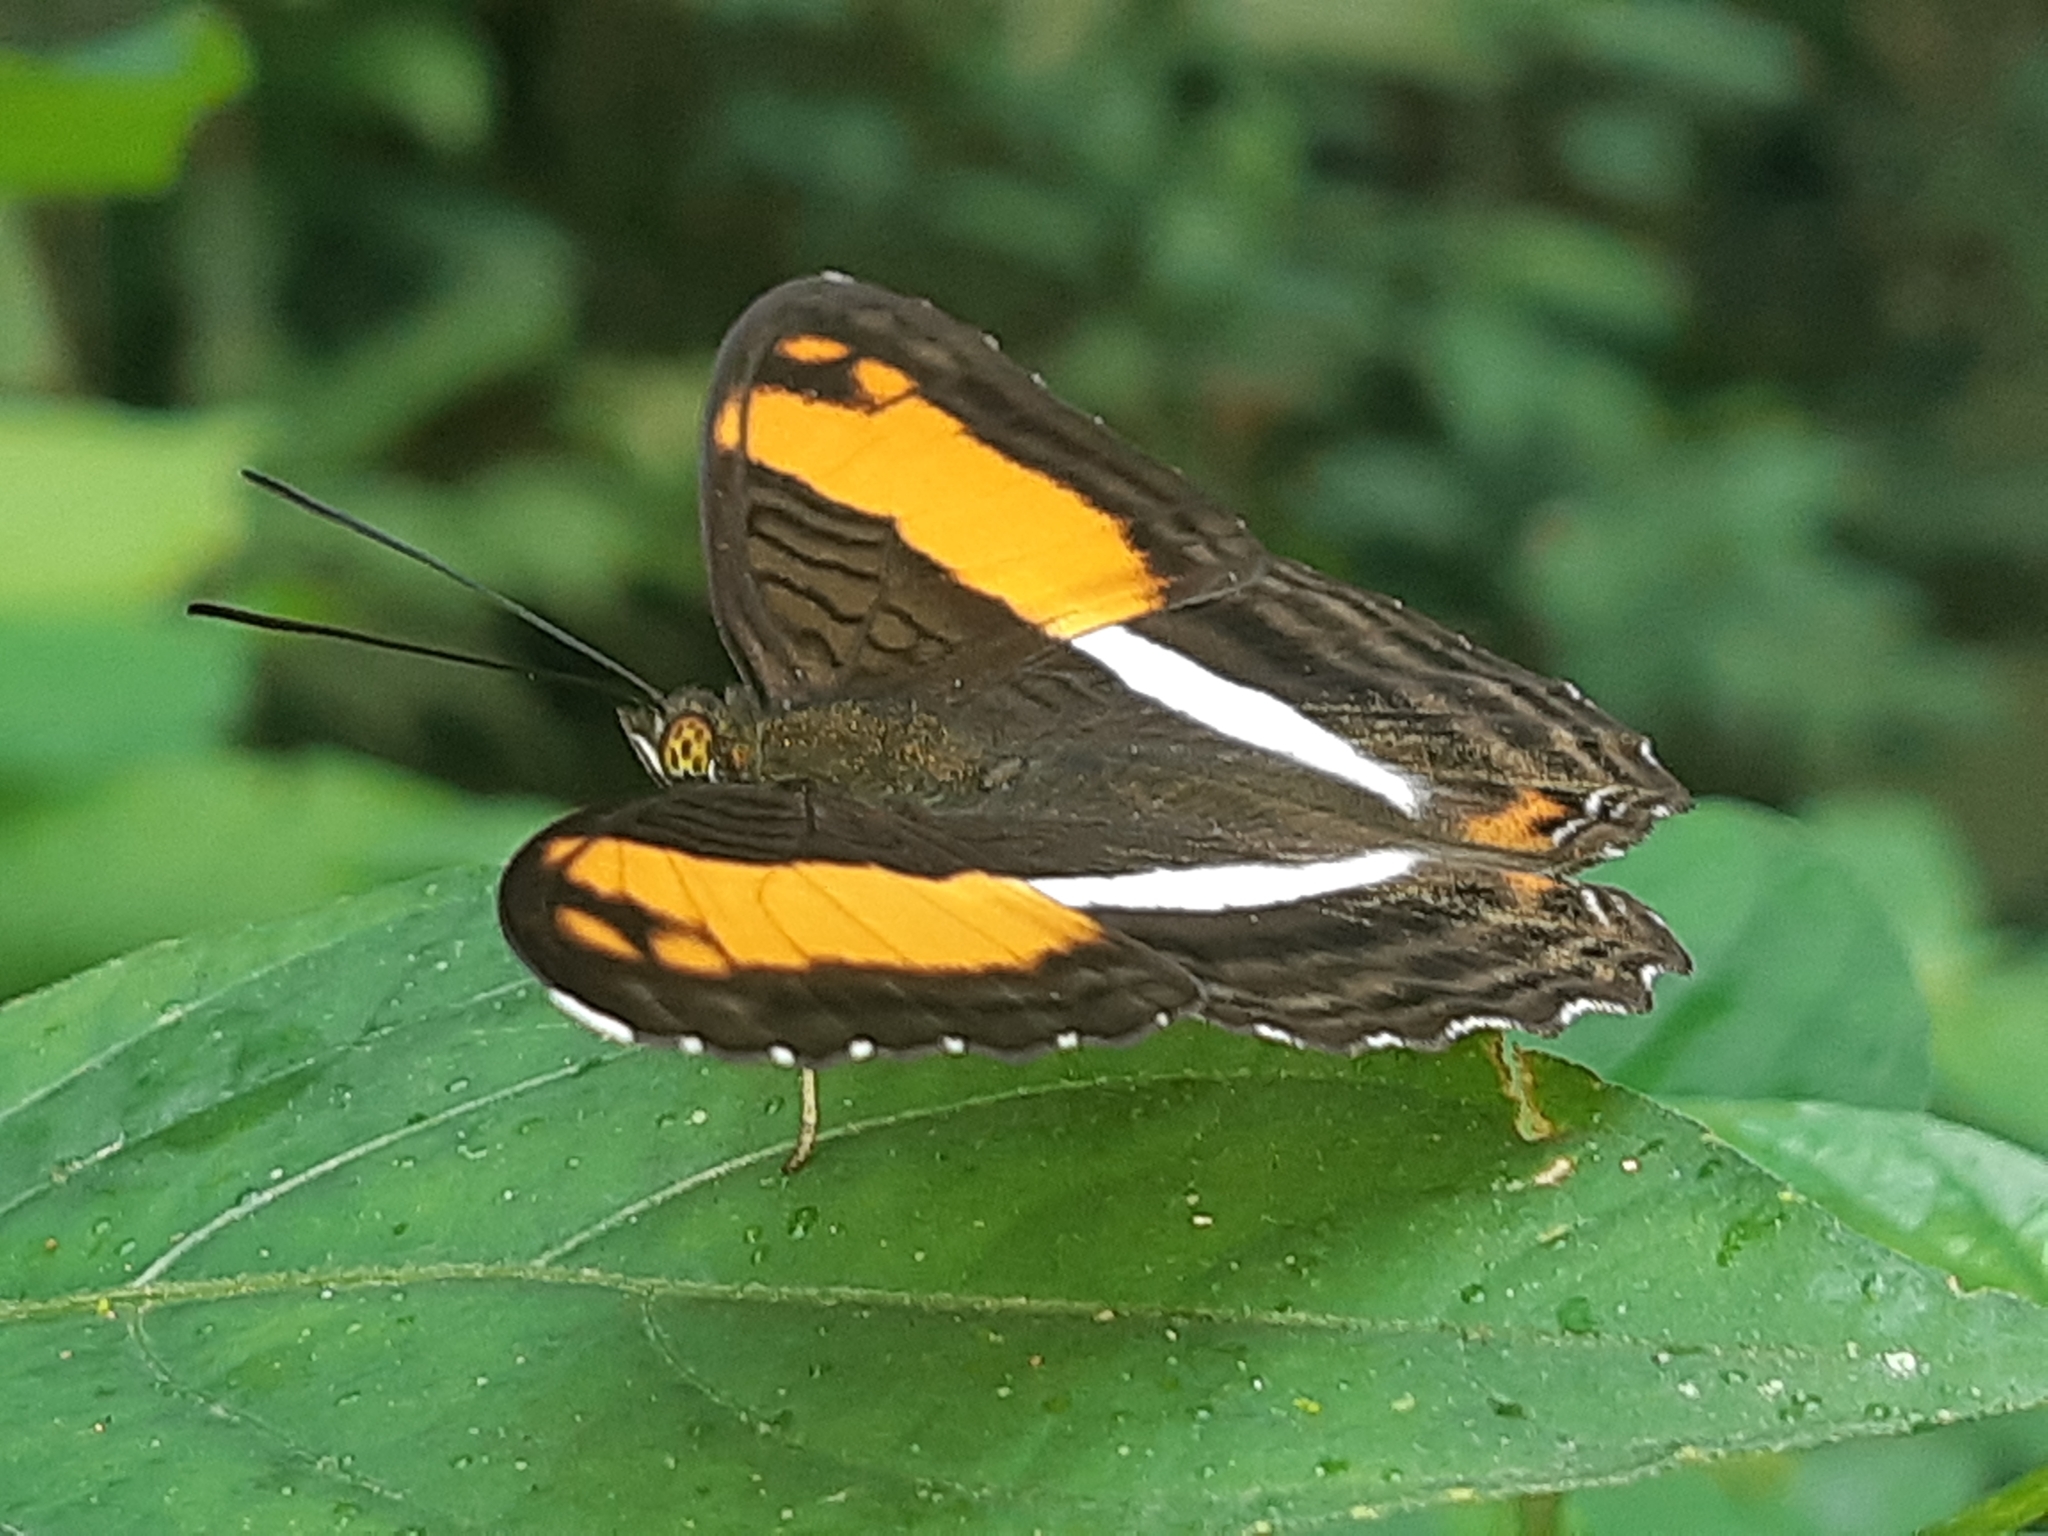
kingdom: Animalia
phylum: Arthropoda
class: Insecta
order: Lepidoptera
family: Nymphalidae
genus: Limenitis
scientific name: Limenitis cocala
